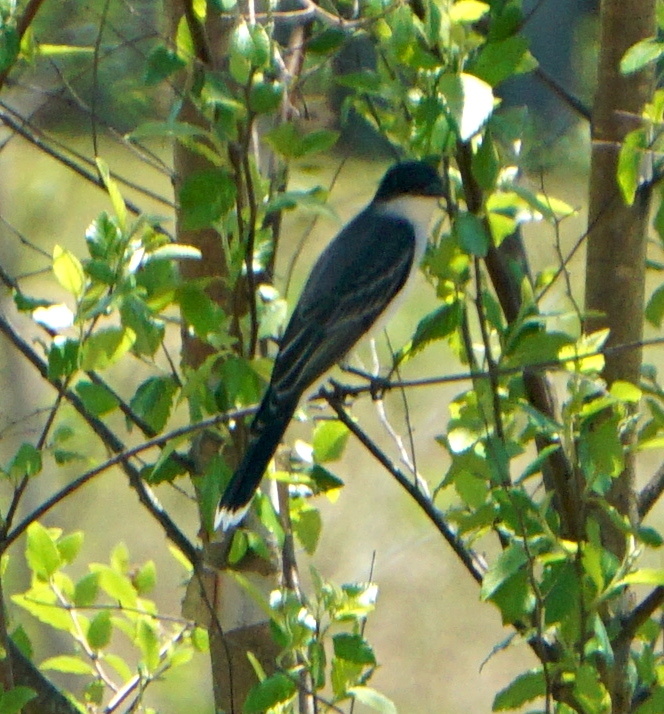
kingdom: Animalia
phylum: Chordata
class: Aves
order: Passeriformes
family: Tyrannidae
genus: Tyrannus
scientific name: Tyrannus tyrannus
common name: Eastern kingbird
